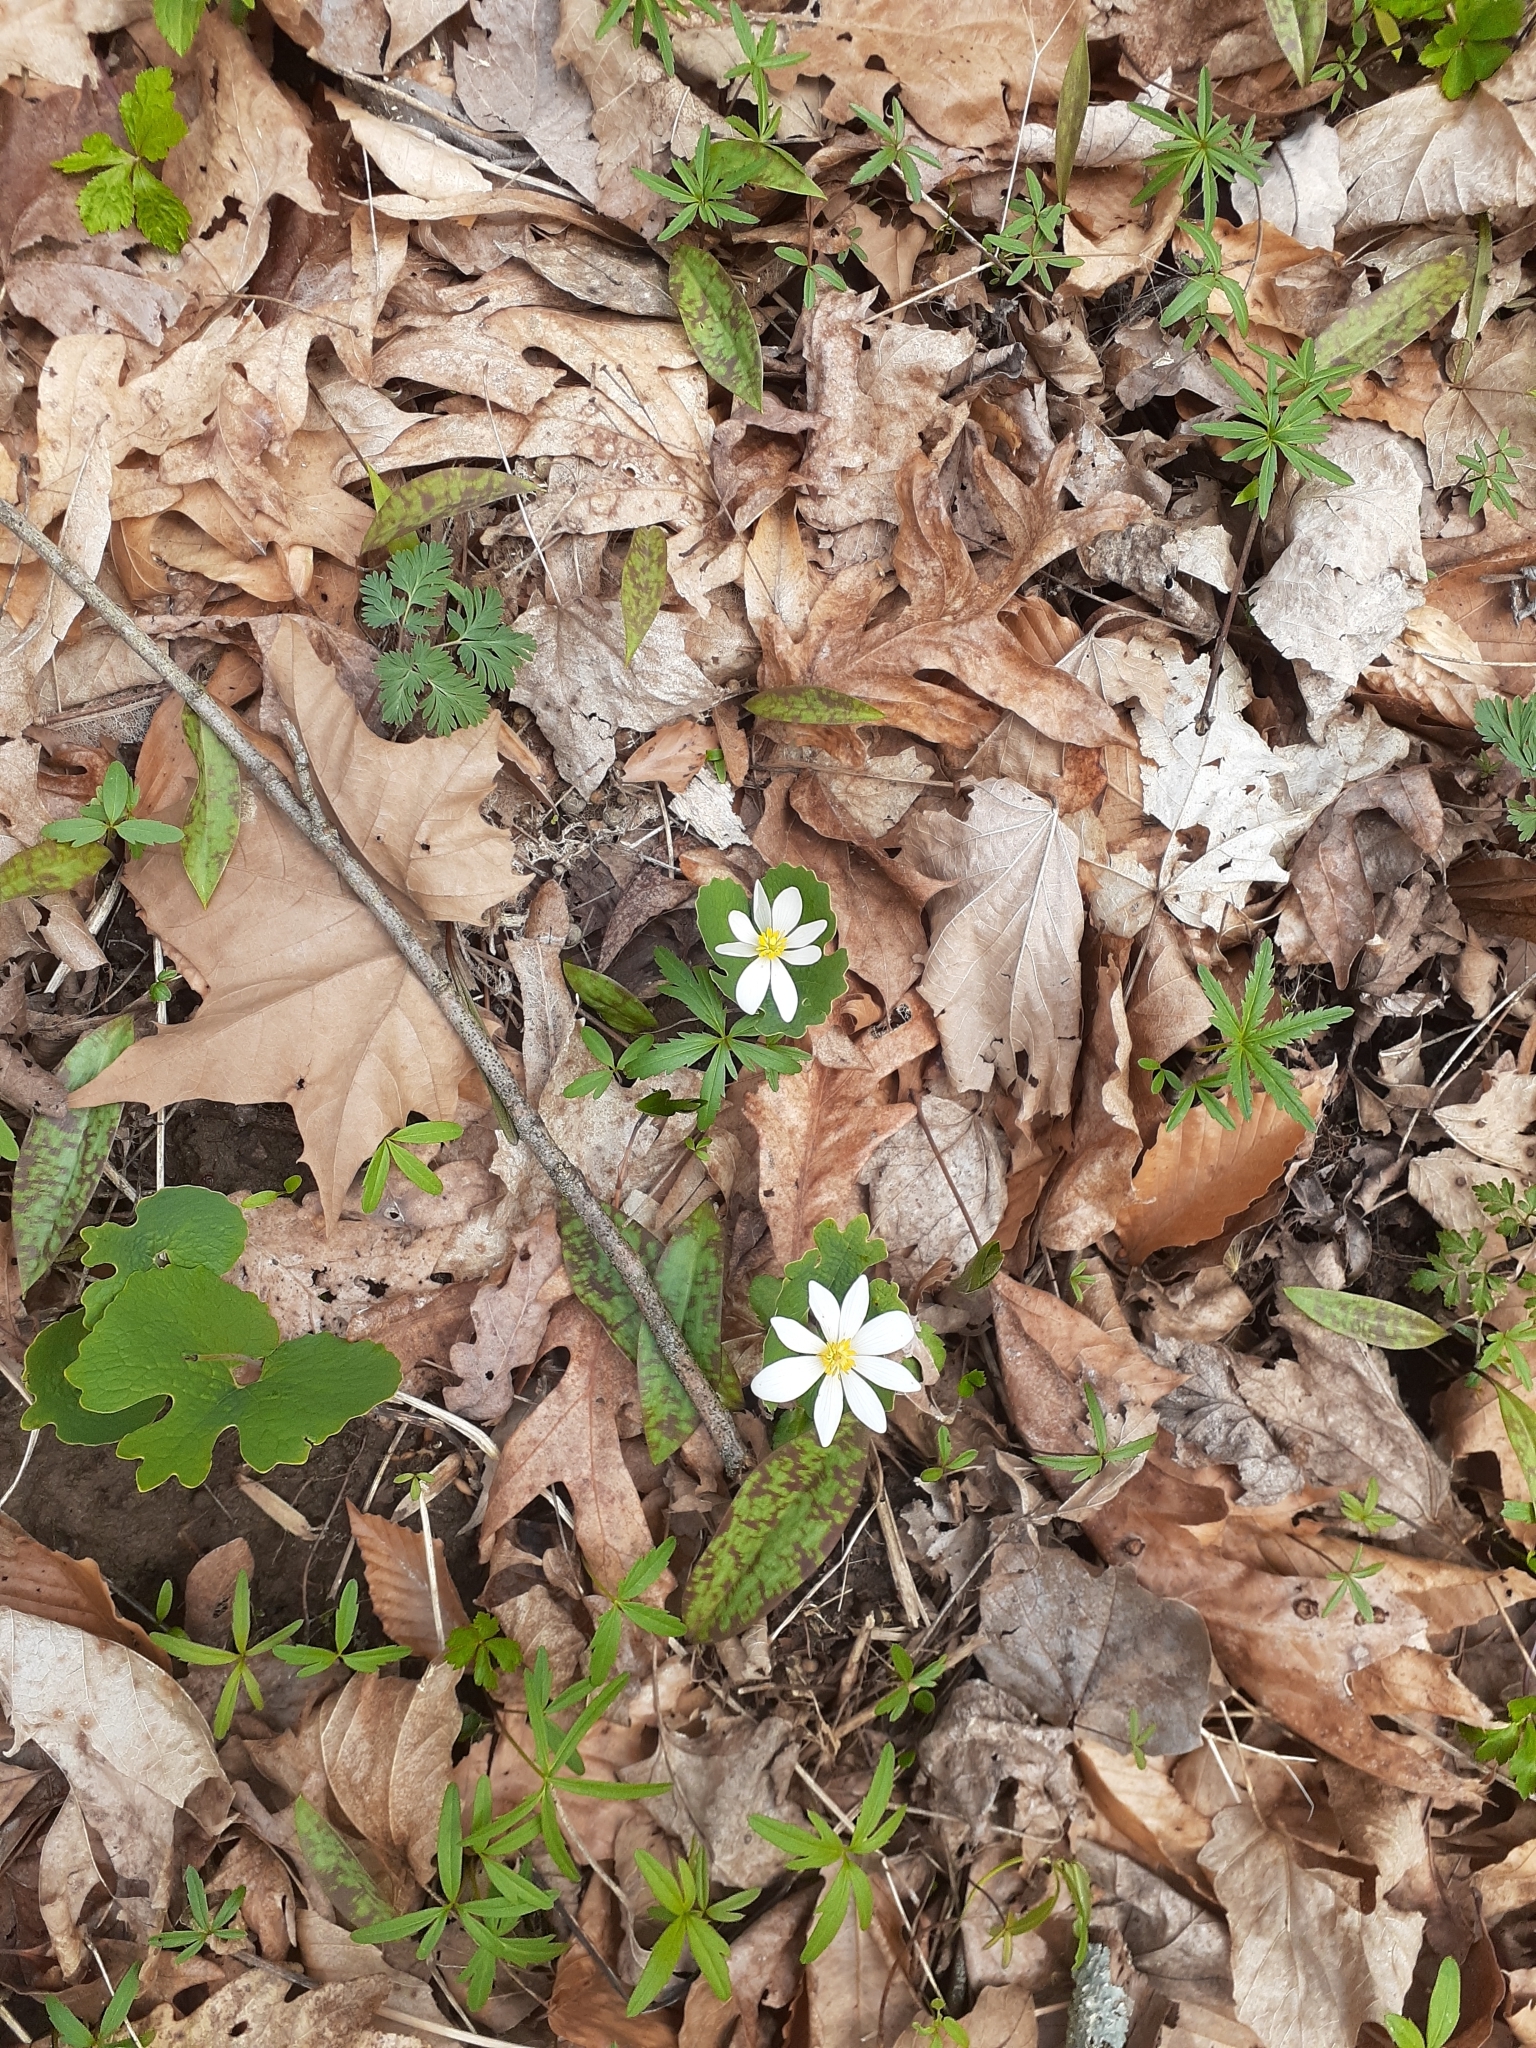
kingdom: Plantae
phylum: Tracheophyta
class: Magnoliopsida
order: Ranunculales
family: Papaveraceae
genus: Sanguinaria
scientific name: Sanguinaria canadensis
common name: Bloodroot
